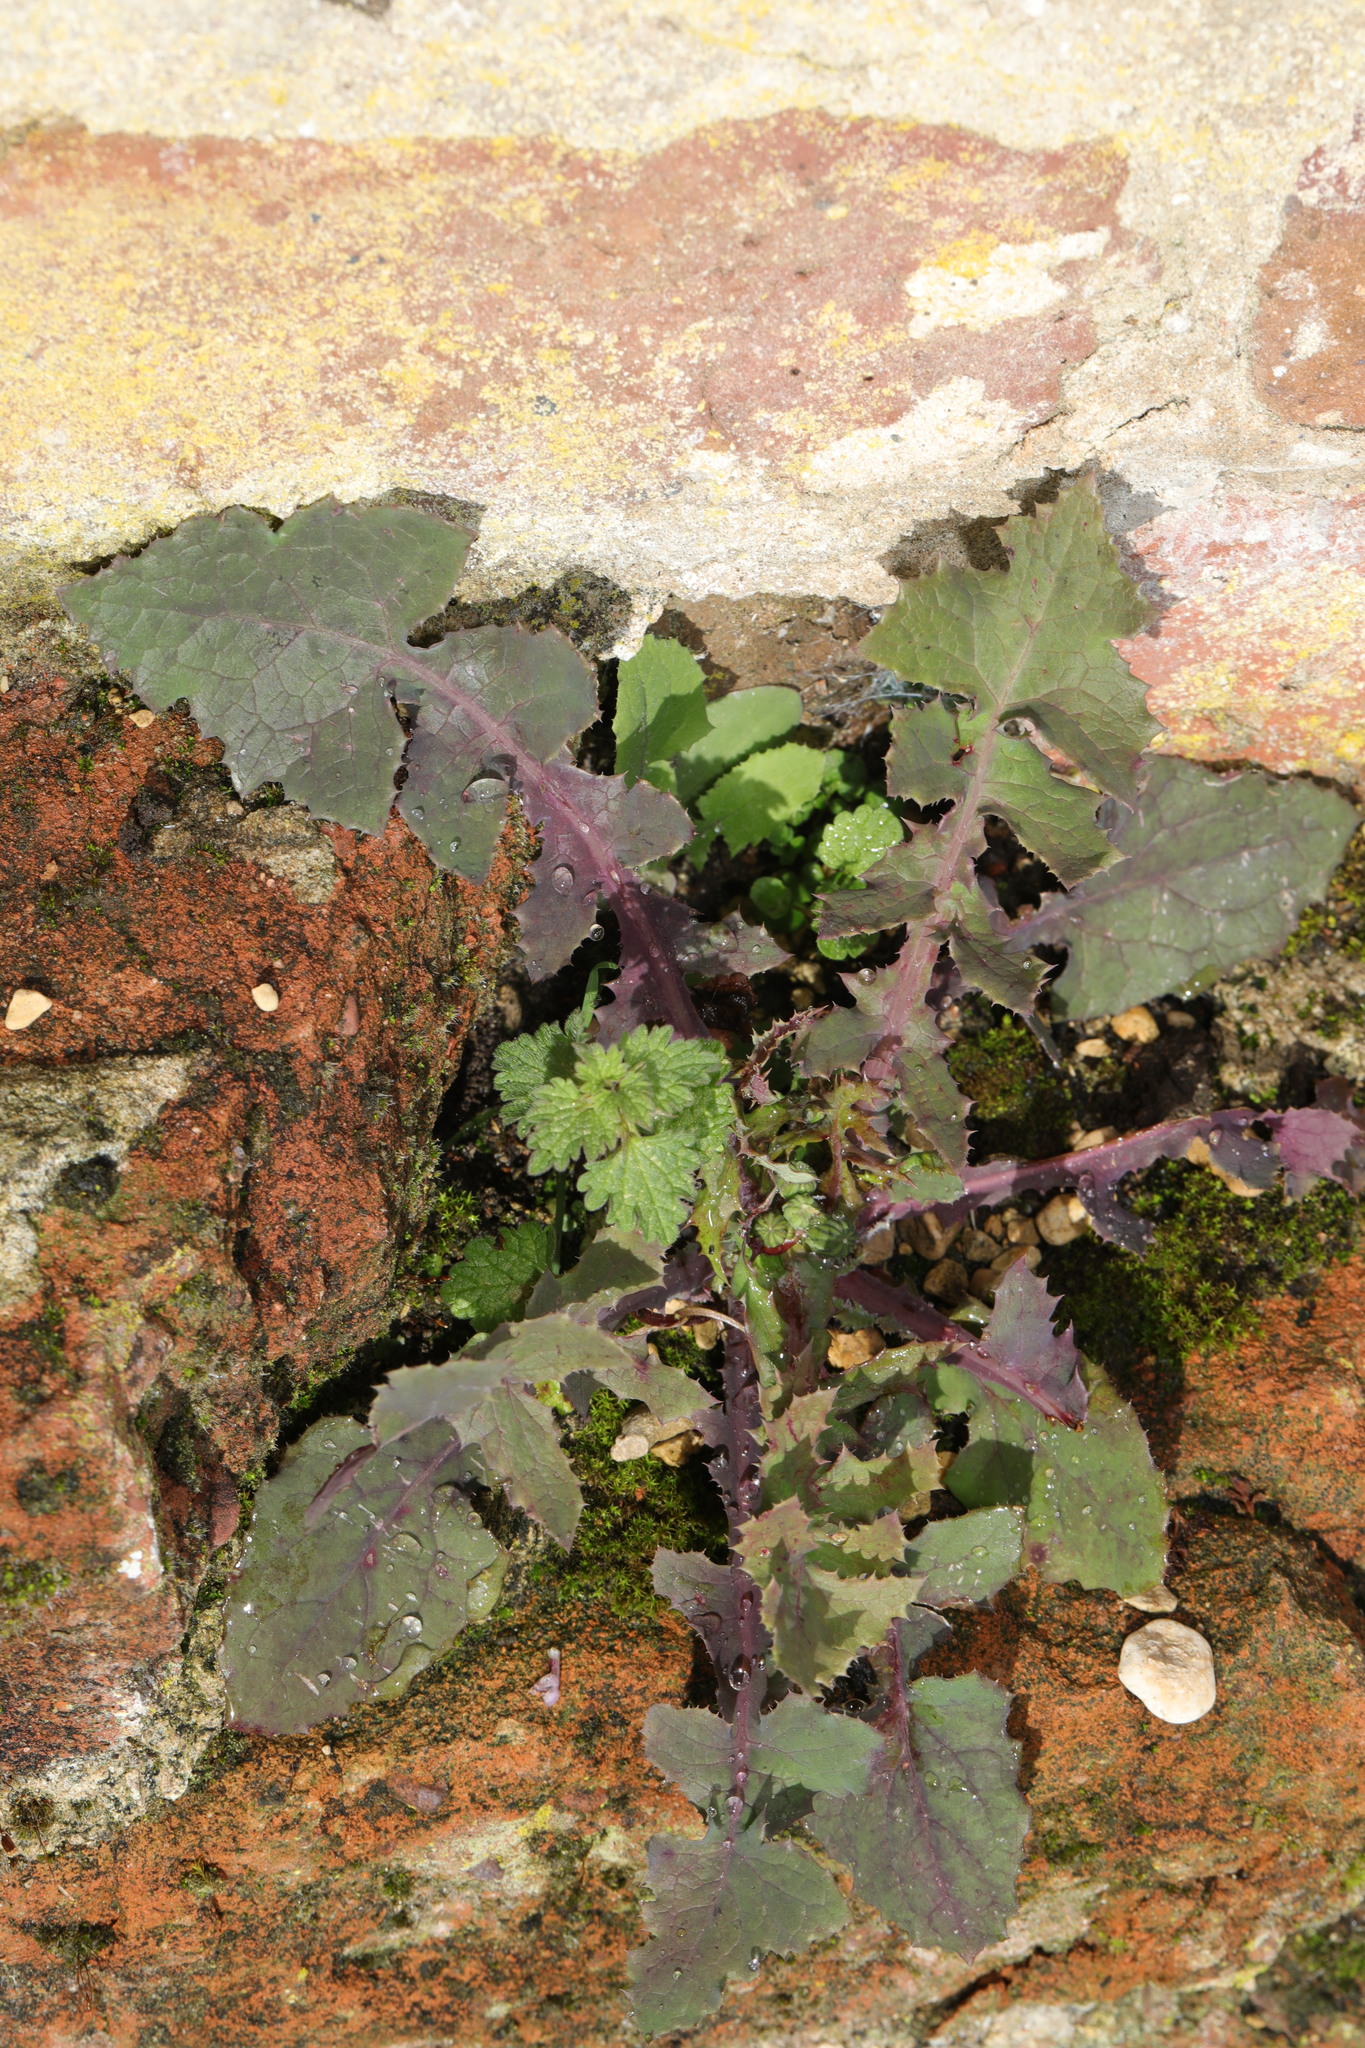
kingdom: Plantae
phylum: Tracheophyta
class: Magnoliopsida
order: Asterales
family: Asteraceae
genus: Sonchus
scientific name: Sonchus oleraceus
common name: Common sowthistle
